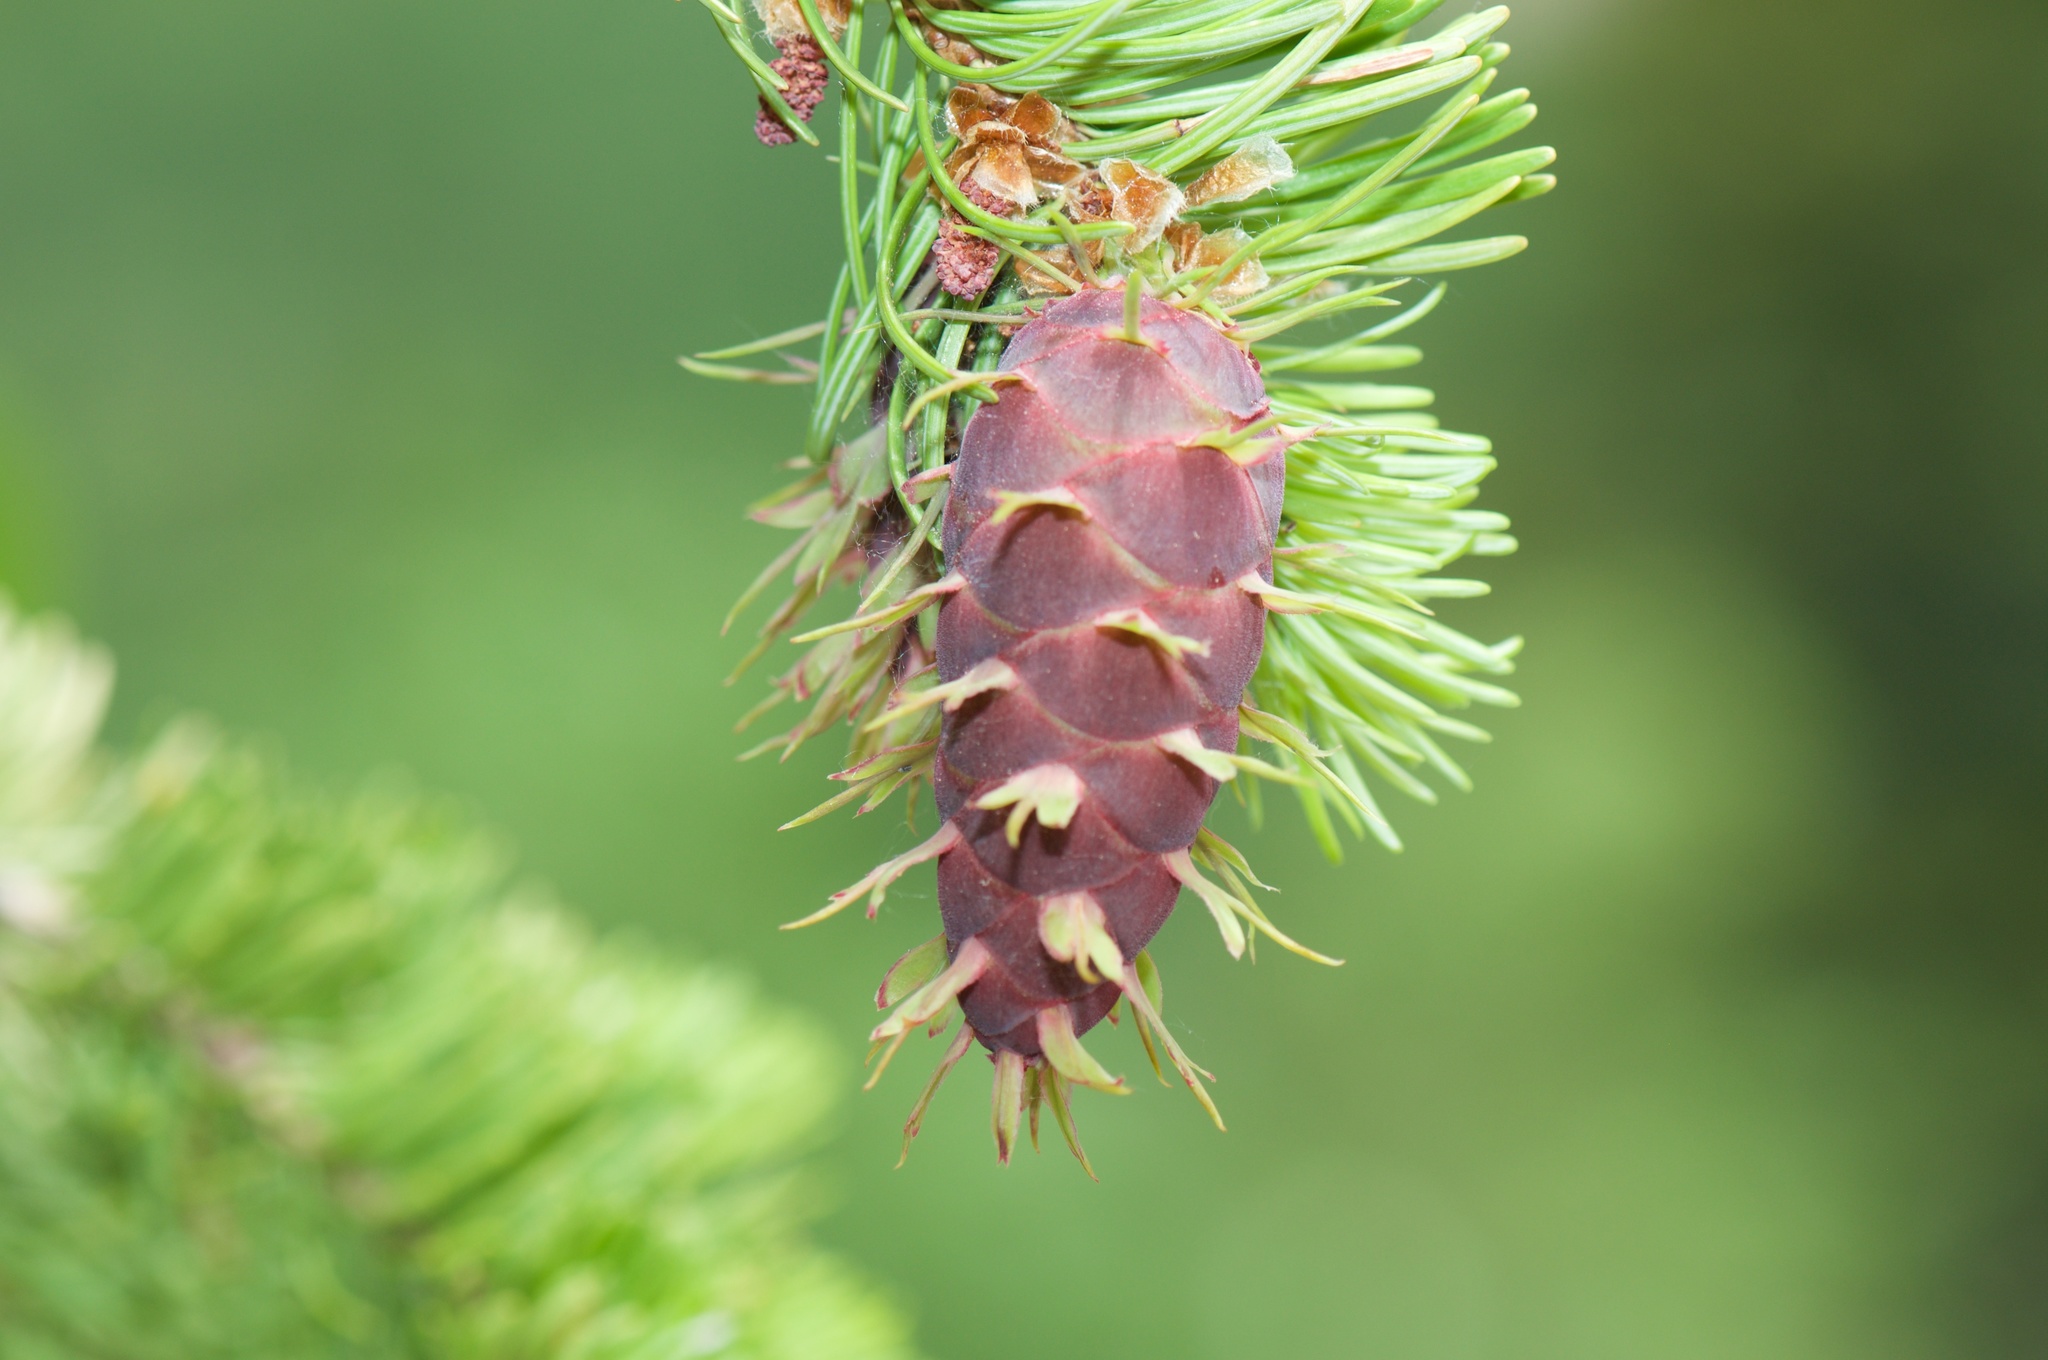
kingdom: Plantae
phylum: Tracheophyta
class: Pinopsida
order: Pinales
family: Pinaceae
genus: Pseudotsuga
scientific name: Pseudotsuga menziesii
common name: Douglas fir
